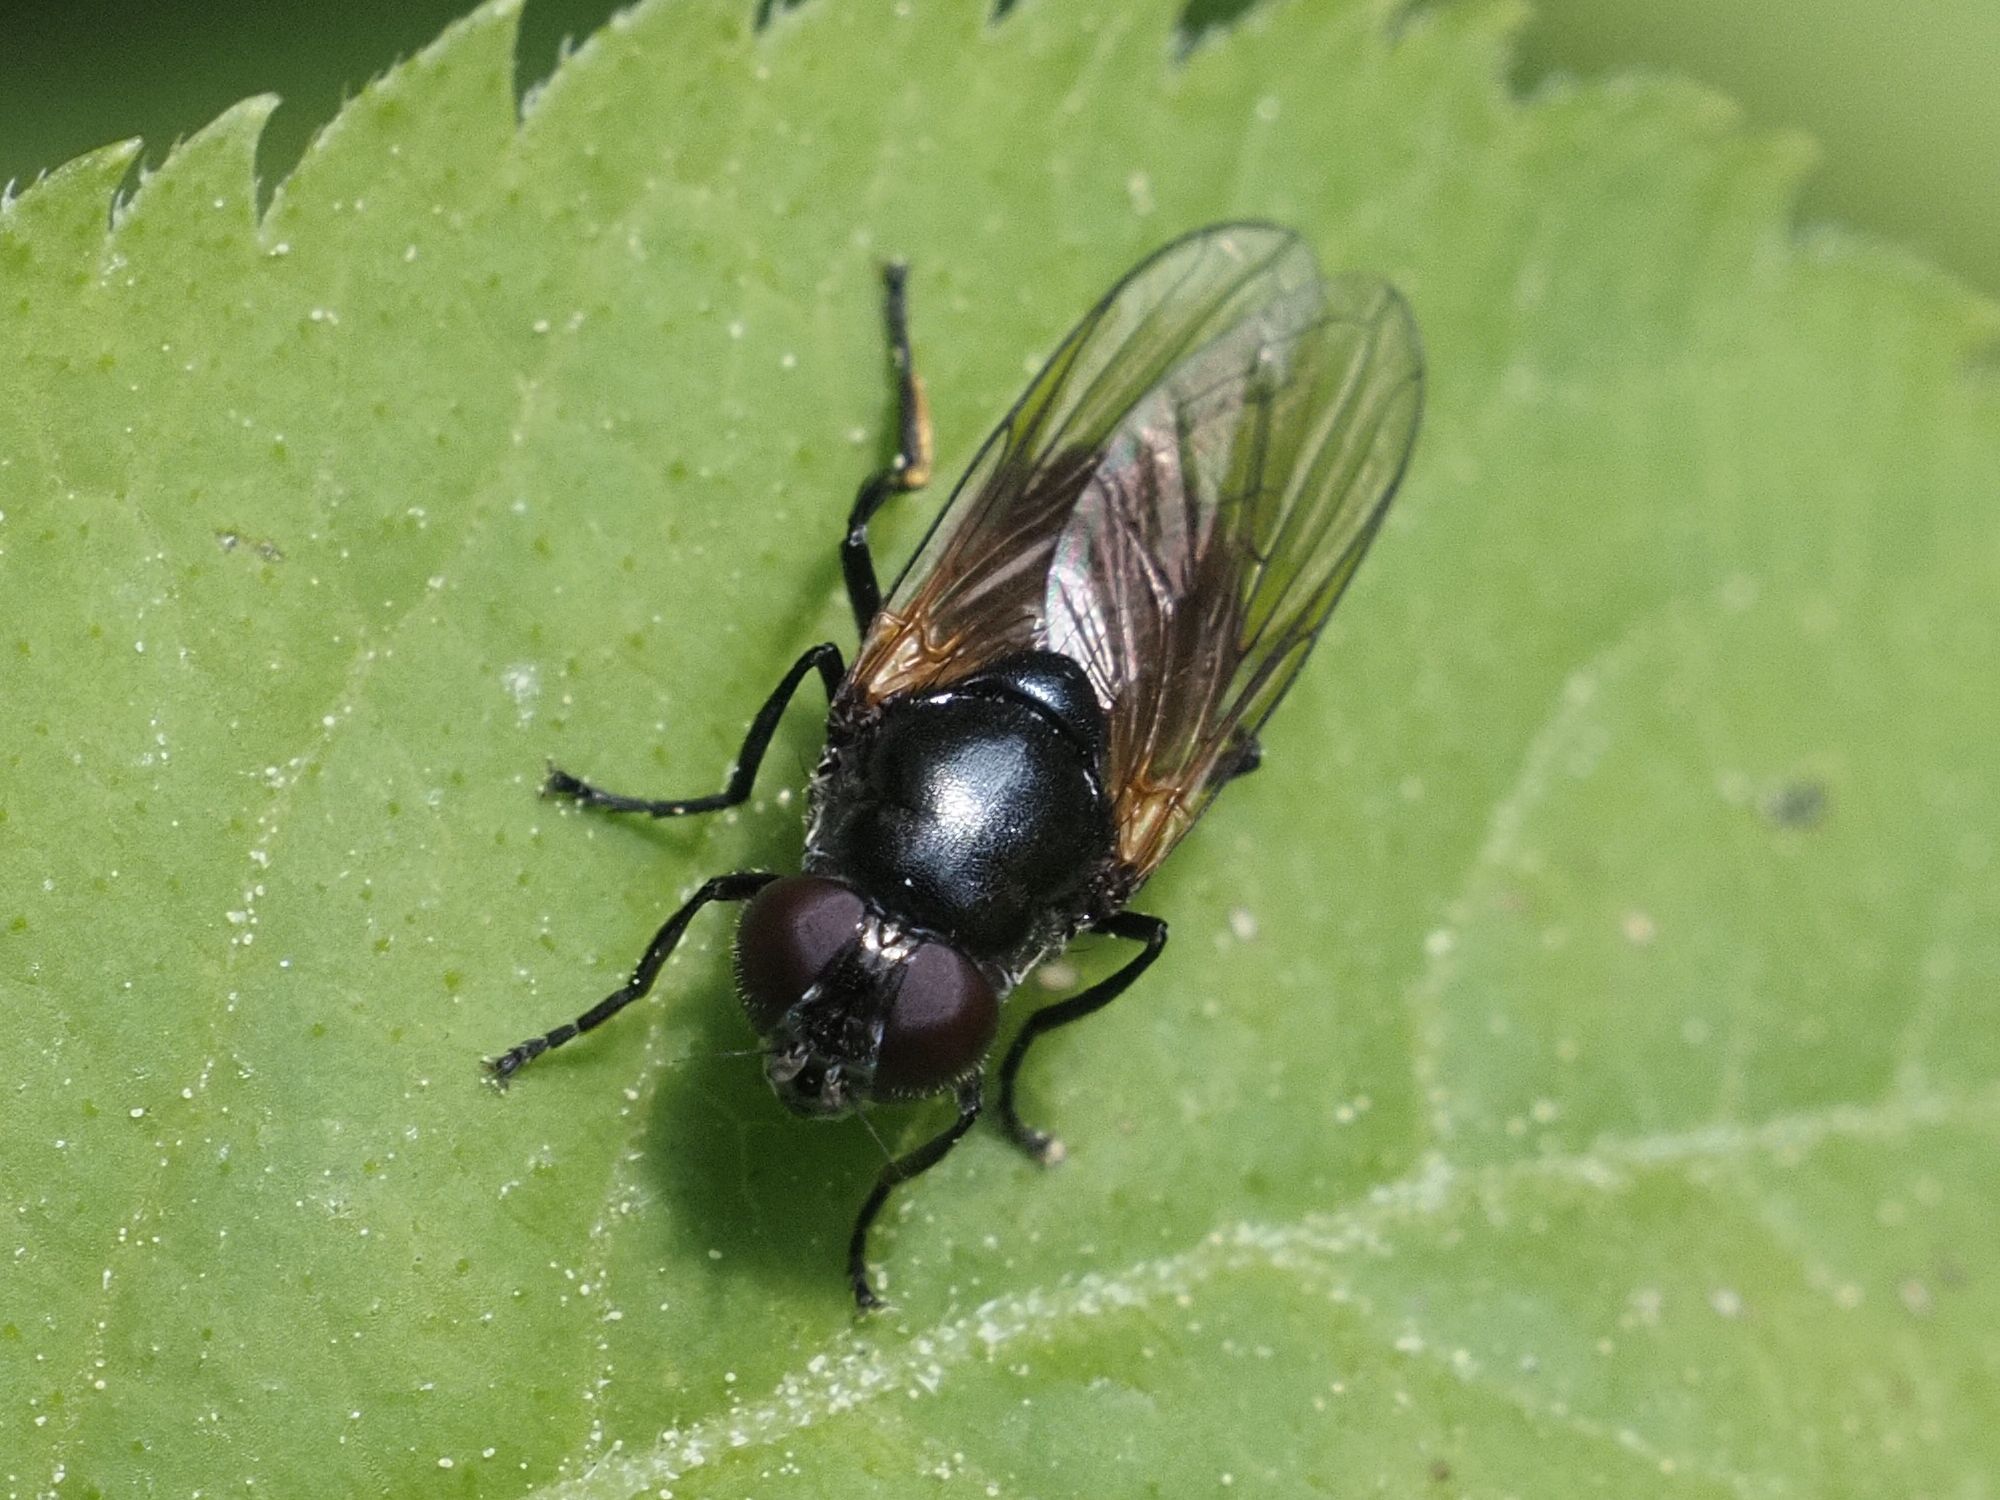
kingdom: Animalia
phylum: Arthropoda
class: Insecta
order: Diptera
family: Syrphidae
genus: Cheilosia
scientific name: Cheilosia impressa
